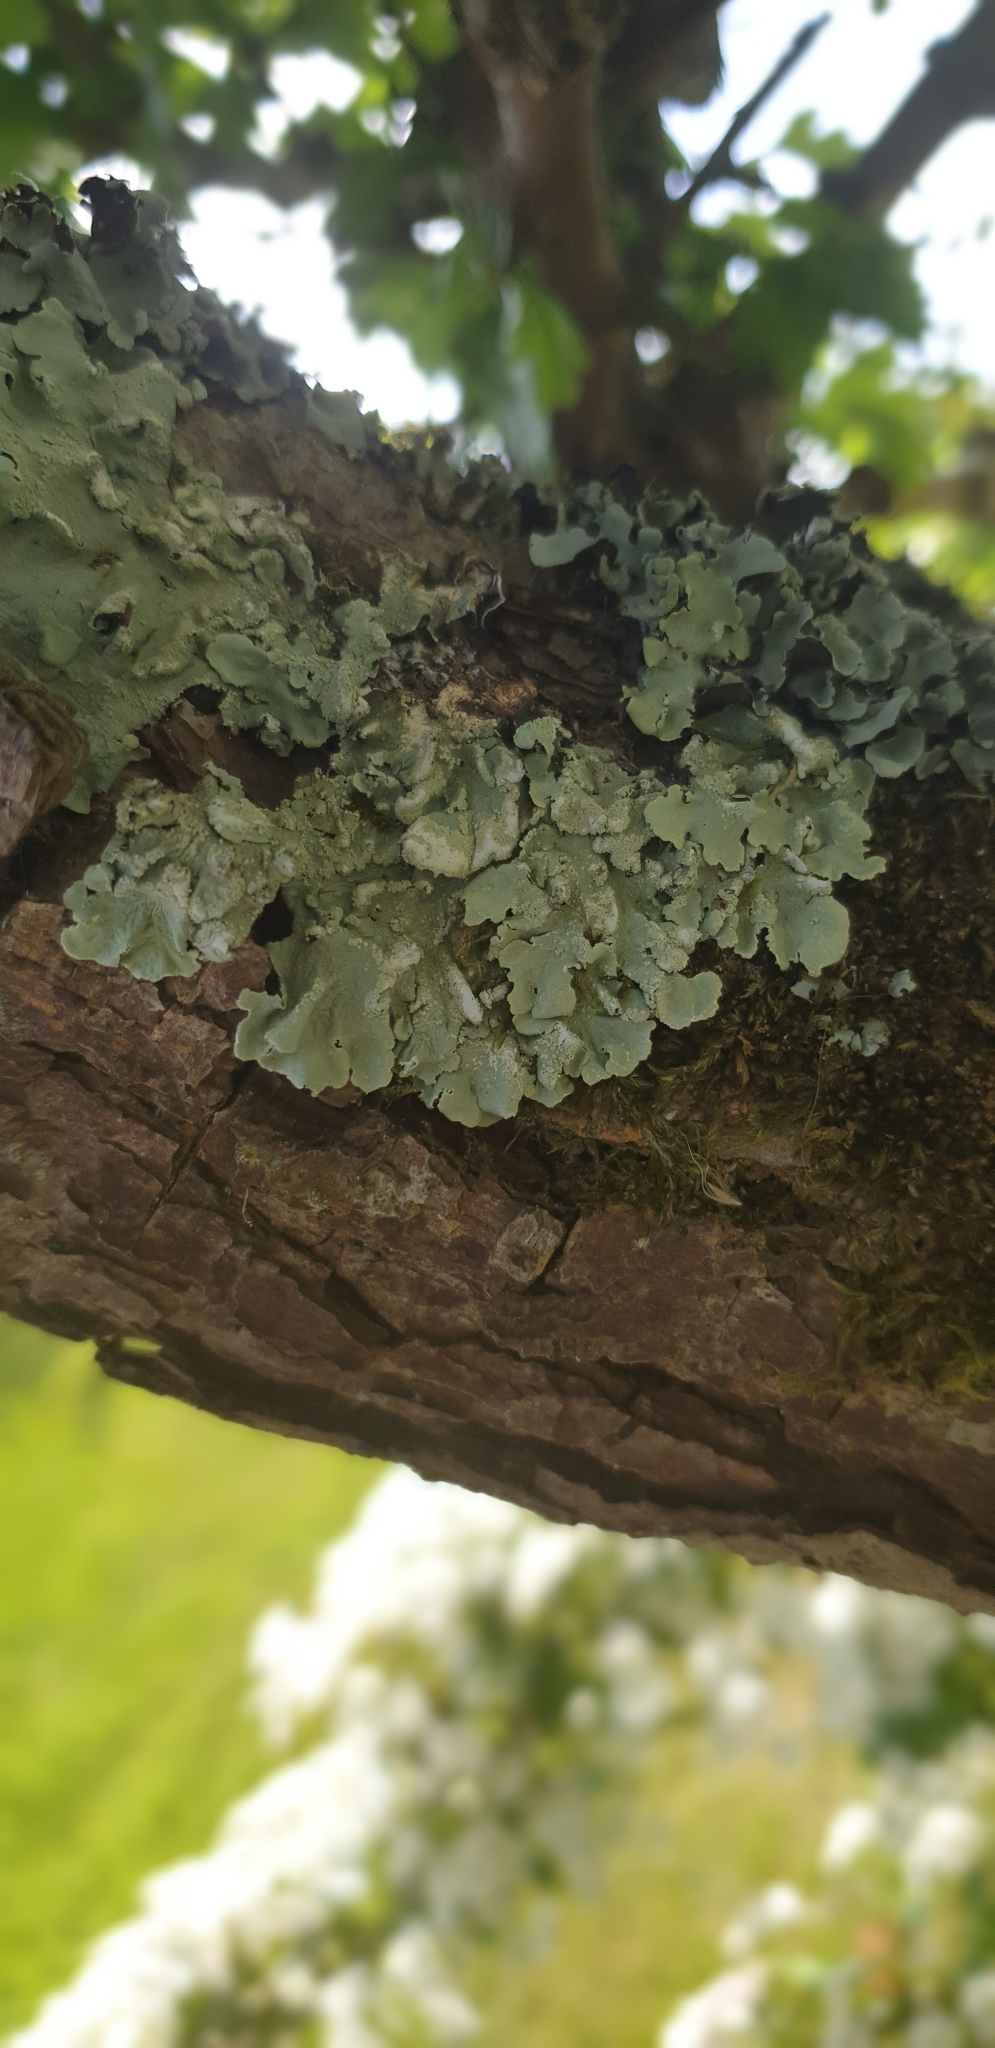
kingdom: Fungi
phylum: Ascomycota
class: Lecanoromycetes
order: Lecanorales
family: Parmeliaceae
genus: Flavoparmelia
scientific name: Flavoparmelia caperata
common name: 40-mile per hour lichen
